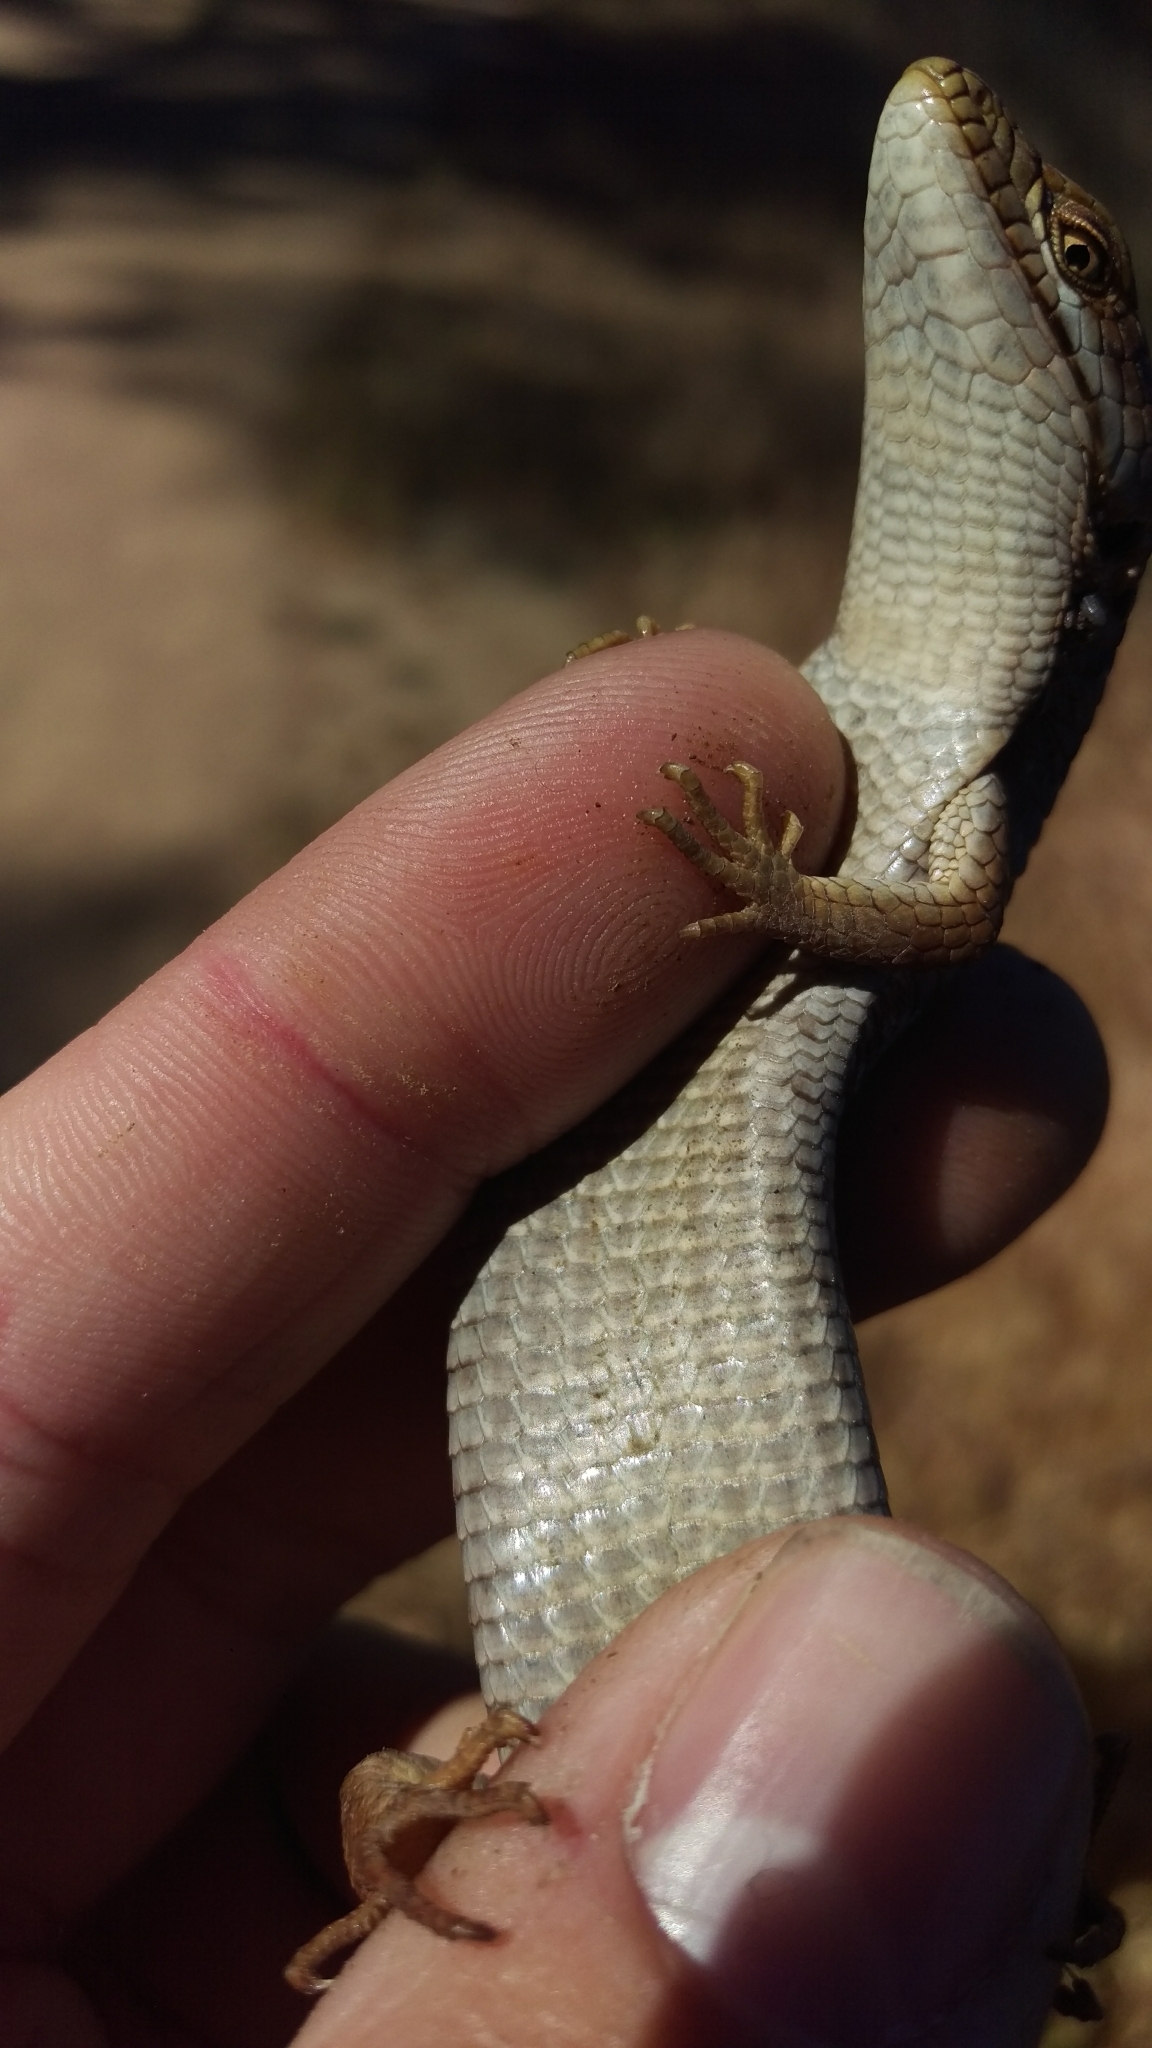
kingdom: Animalia
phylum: Chordata
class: Squamata
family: Anguidae
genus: Elgaria
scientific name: Elgaria multicarinata
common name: Southern alligator lizard
